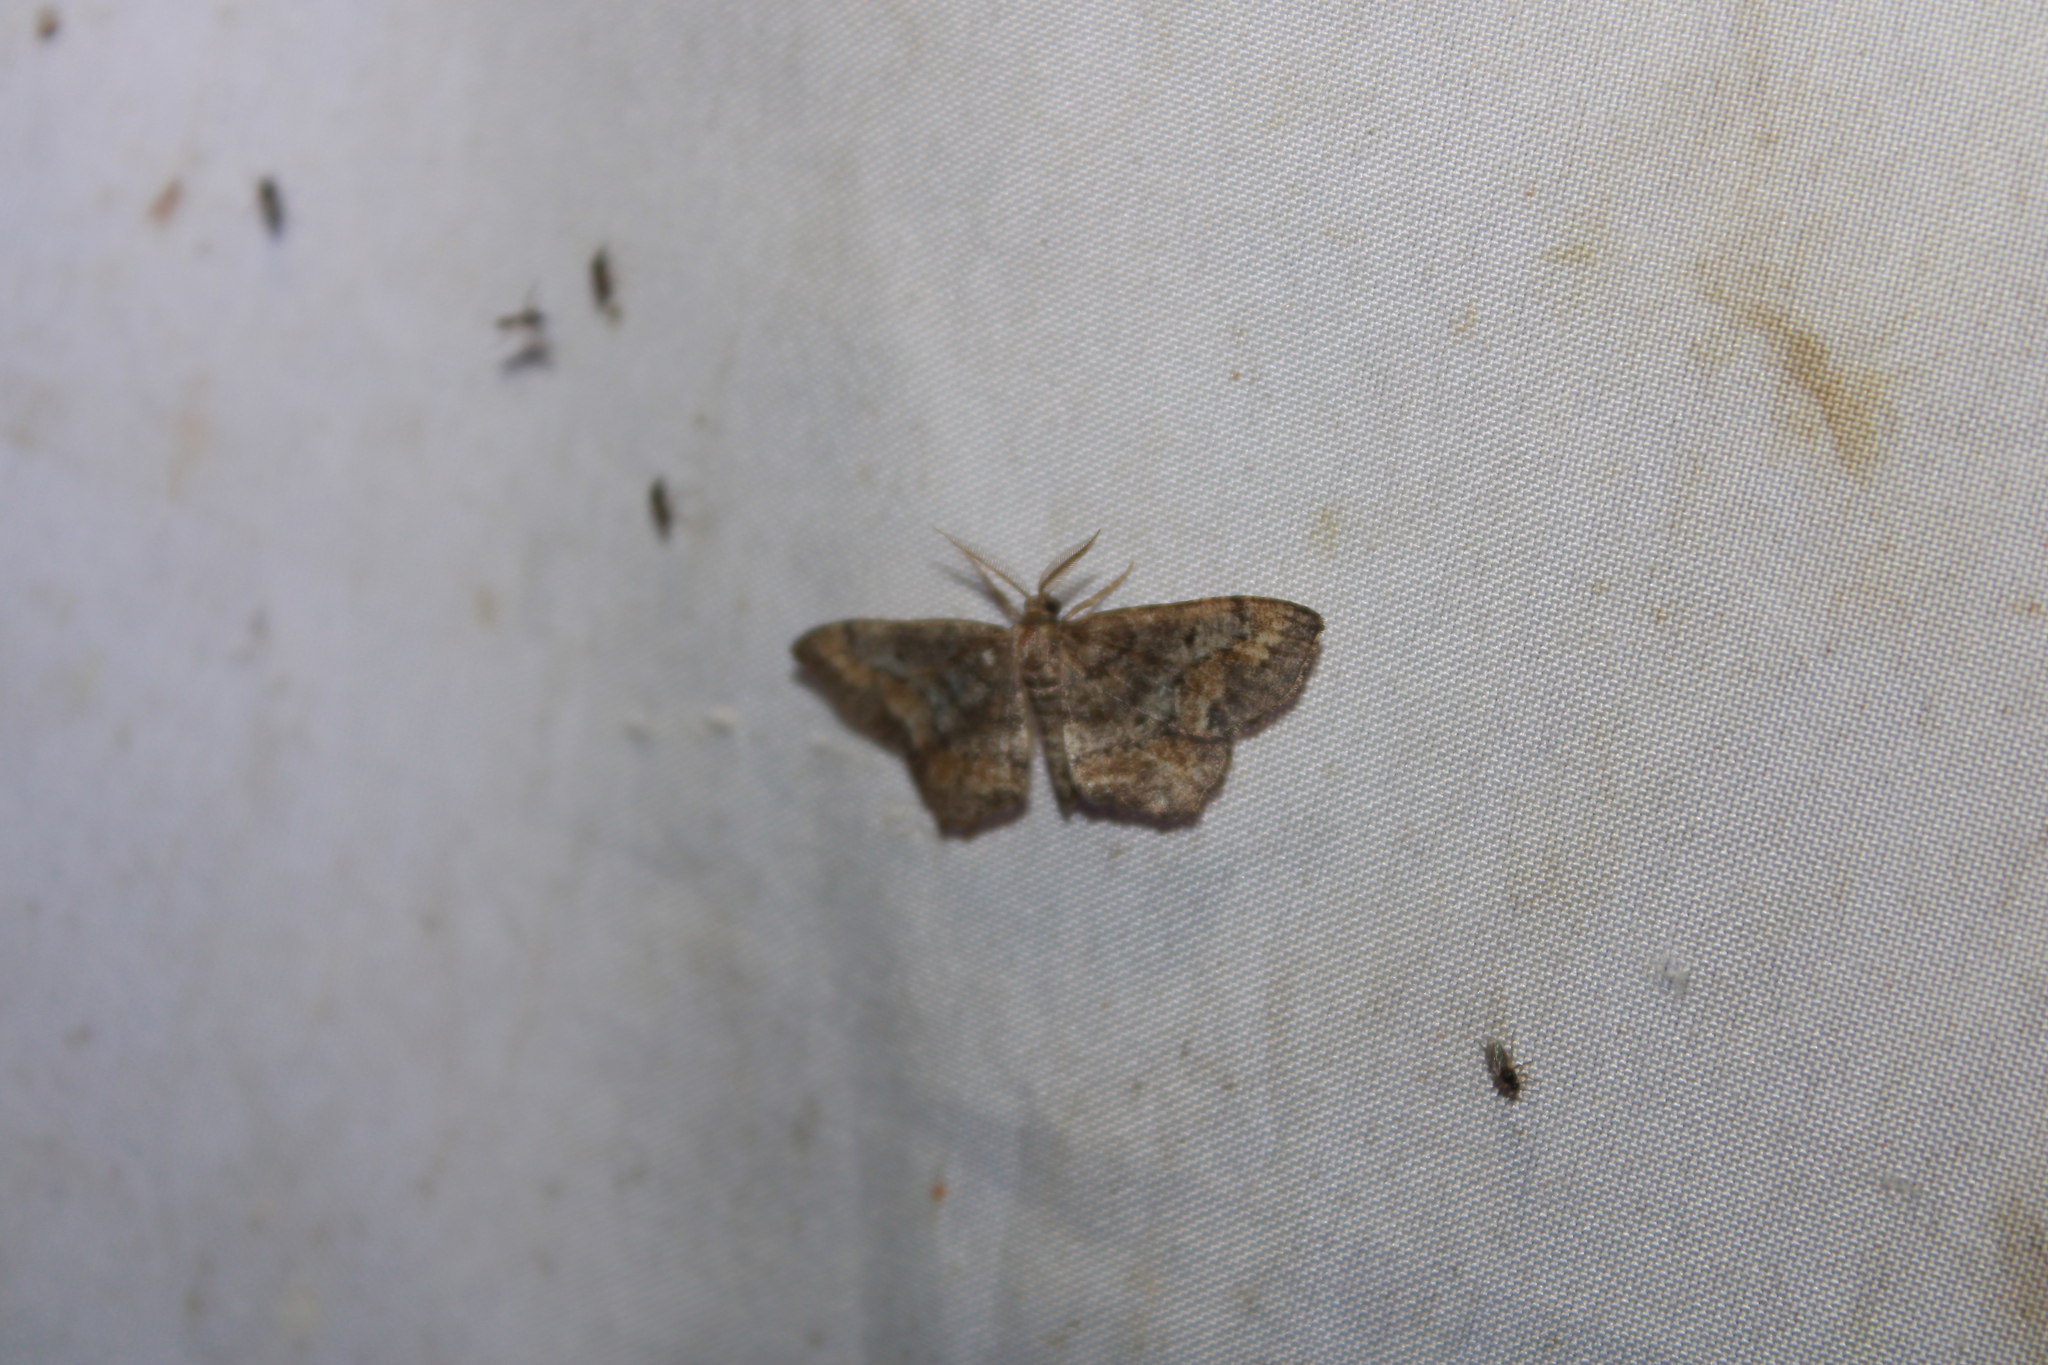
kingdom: Animalia
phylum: Arthropoda
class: Insecta
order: Lepidoptera
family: Geometridae
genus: Hypagyrtis
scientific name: Hypagyrtis unipunctata
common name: One-spotted variant
